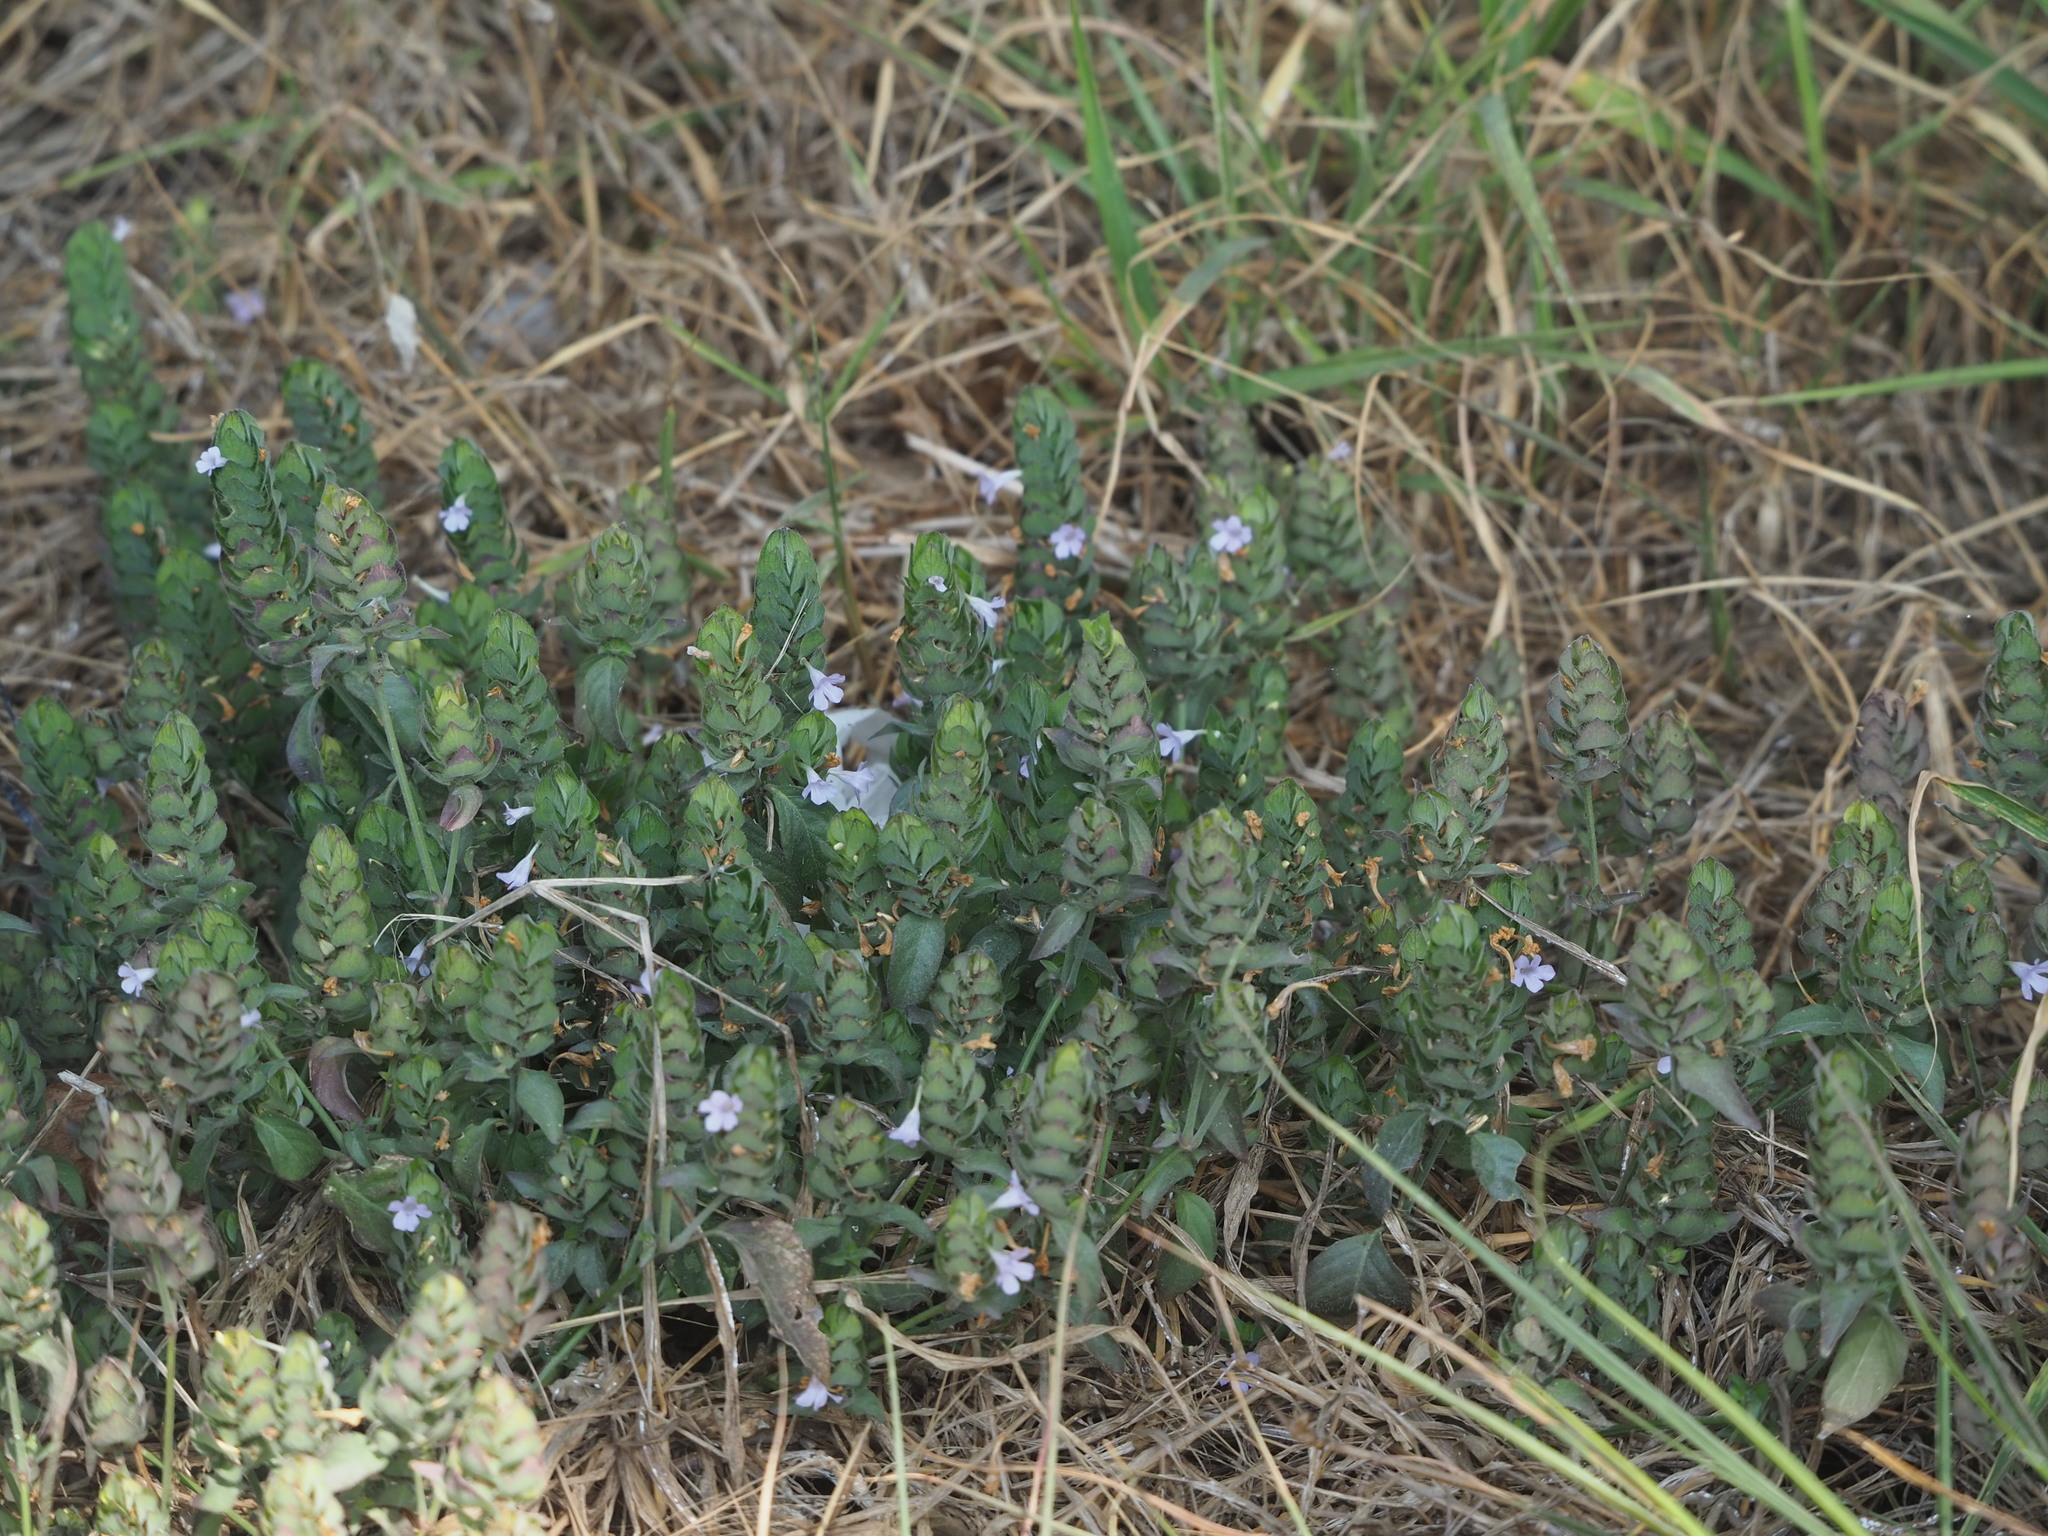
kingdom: Plantae
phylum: Tracheophyta
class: Magnoliopsida
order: Lamiales
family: Acanthaceae
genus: Ruellia
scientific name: Ruellia blechum
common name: Browne's blechum
